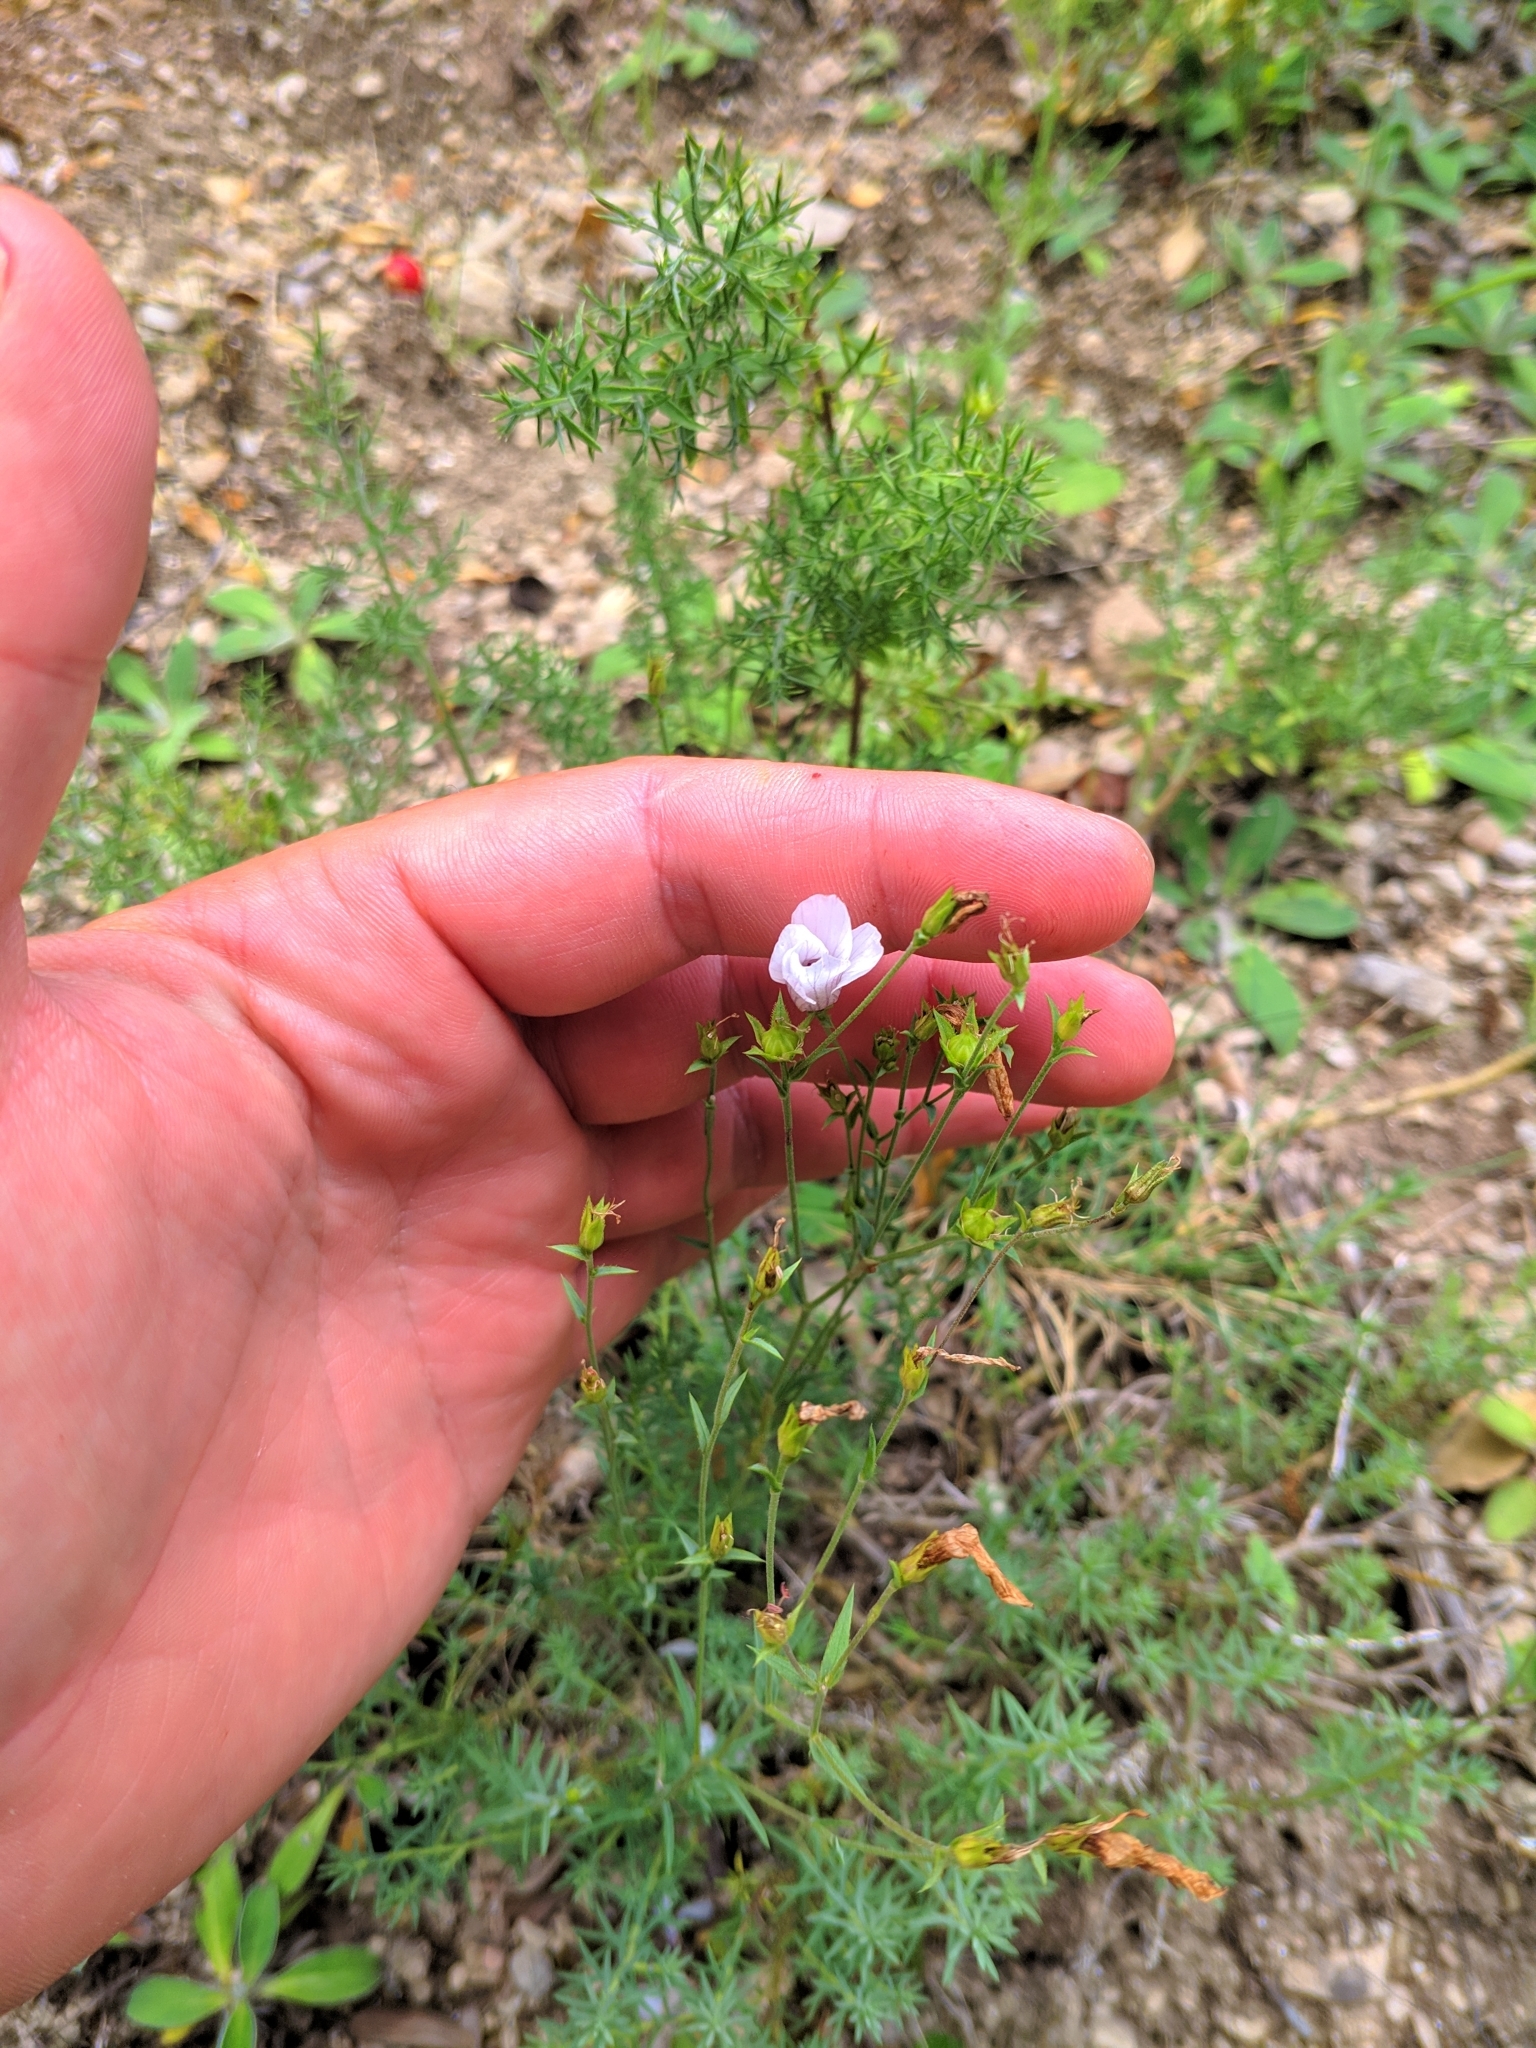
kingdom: Plantae
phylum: Tracheophyta
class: Magnoliopsida
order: Malpighiales
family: Linaceae
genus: Linum
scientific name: Linum appressum
